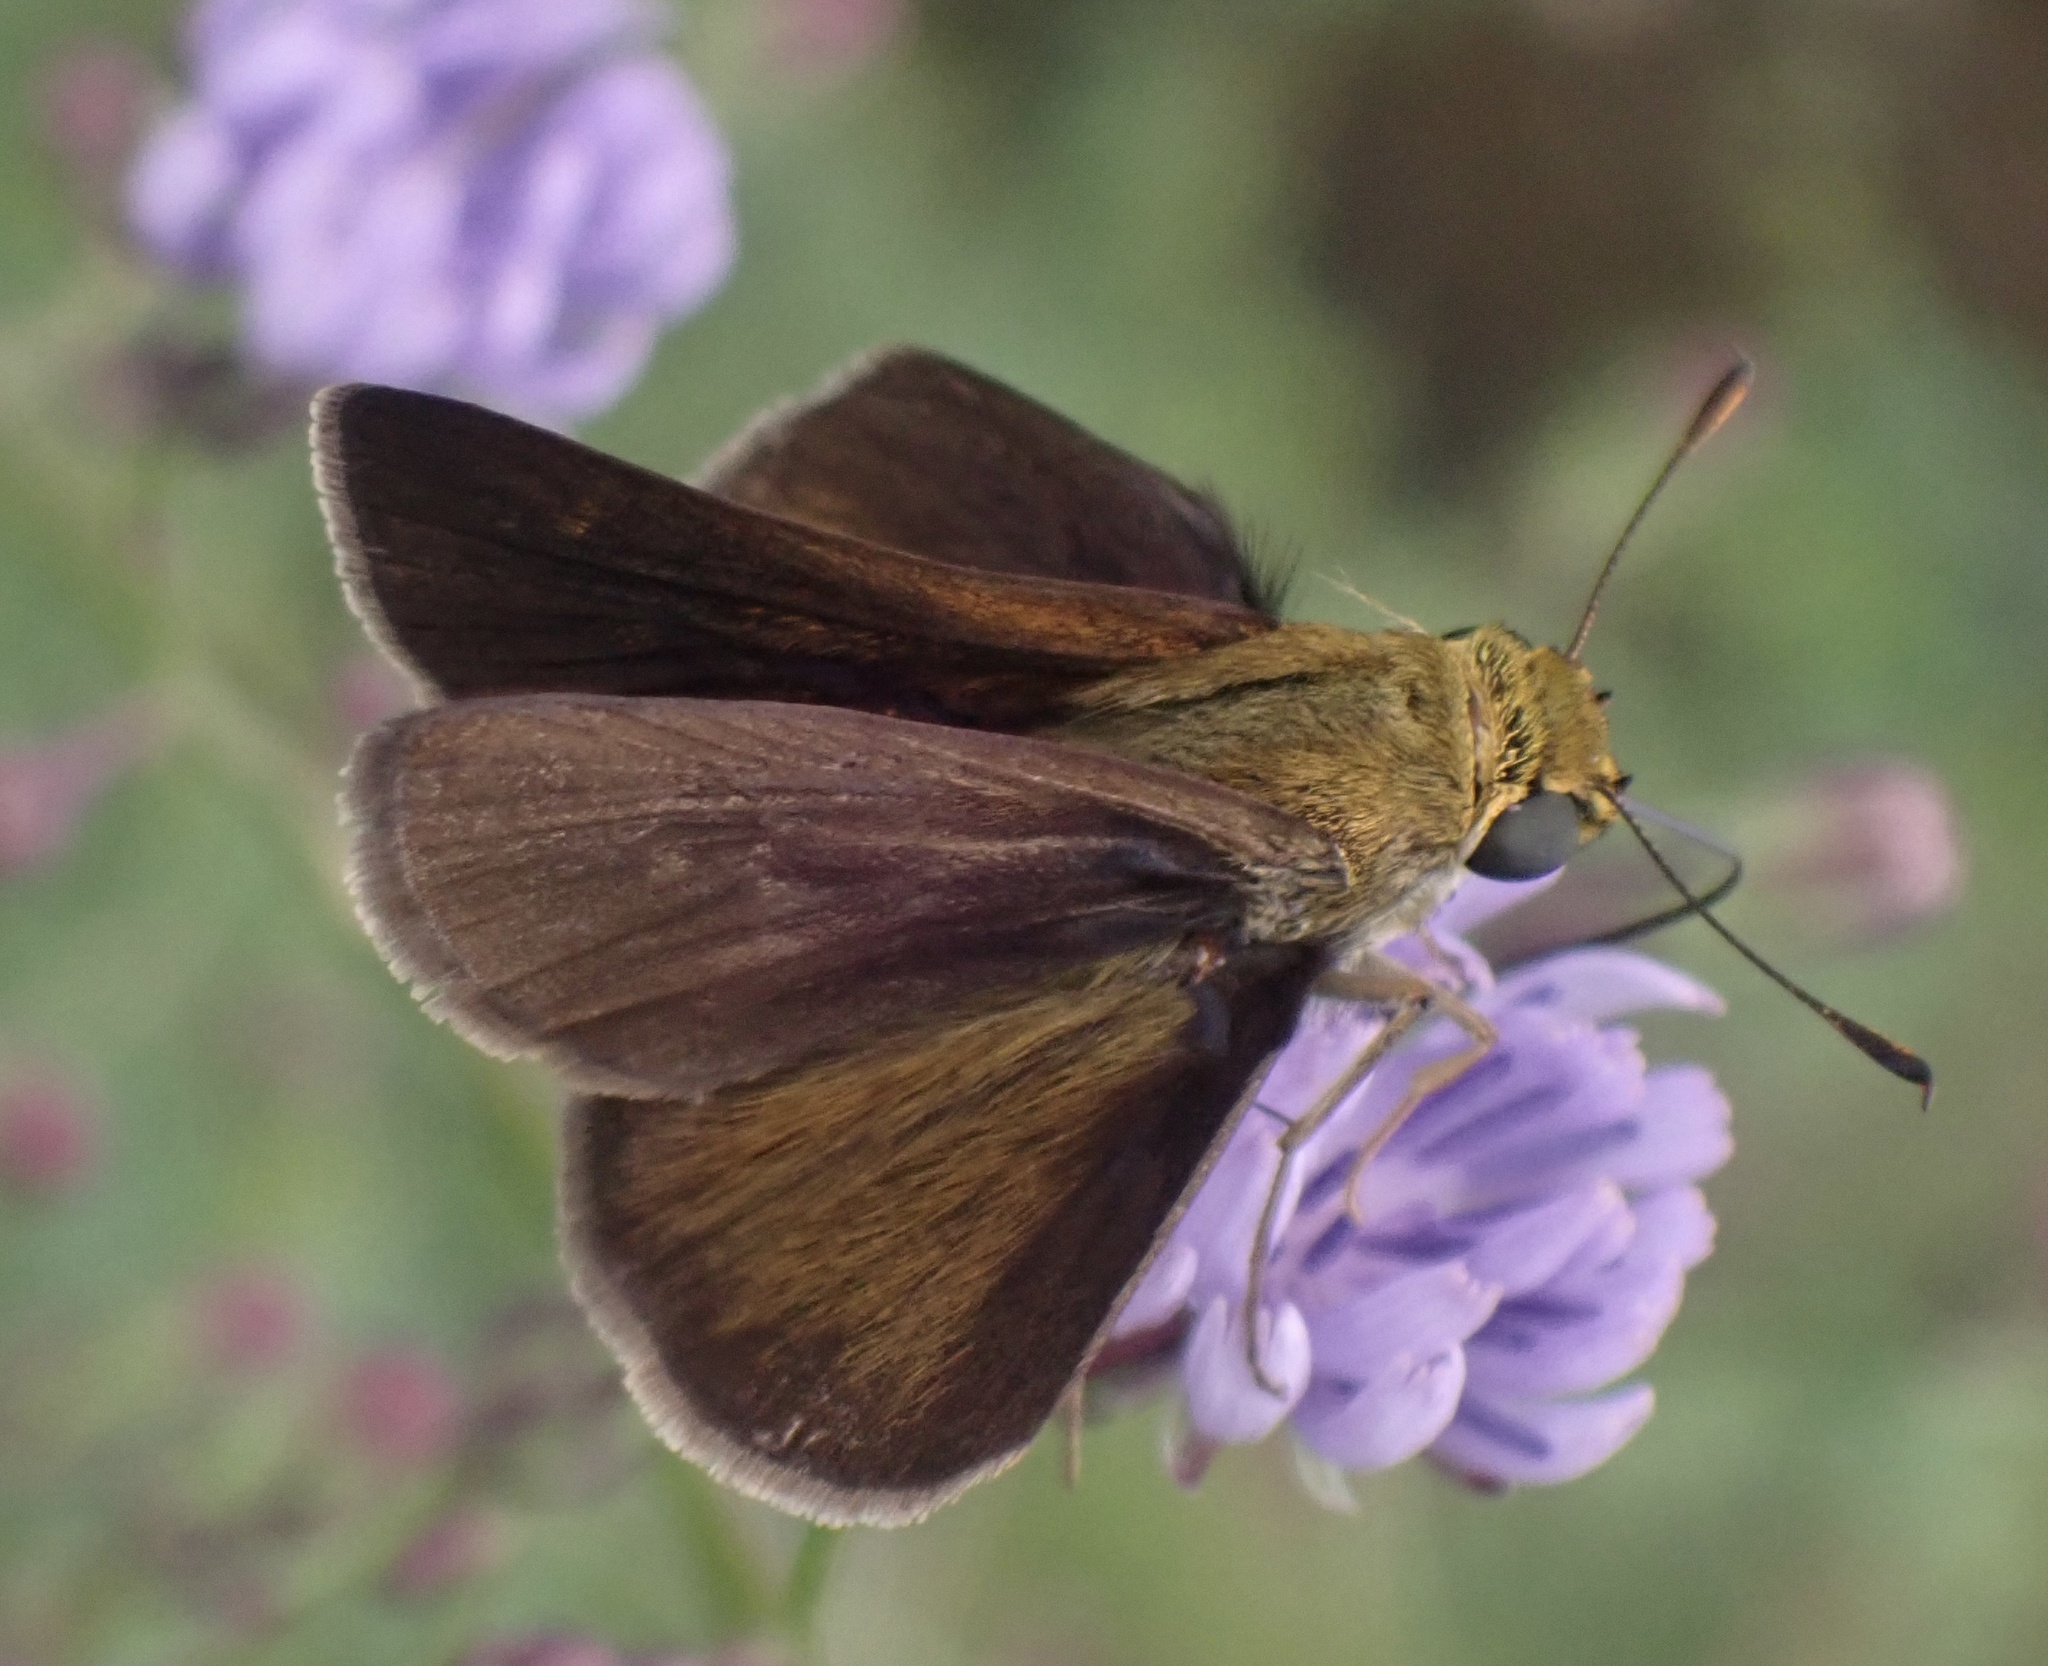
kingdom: Animalia
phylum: Arthropoda
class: Insecta
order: Lepidoptera
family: Hesperiidae
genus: Euphyes
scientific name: Euphyes vestris
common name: Dun skipper
